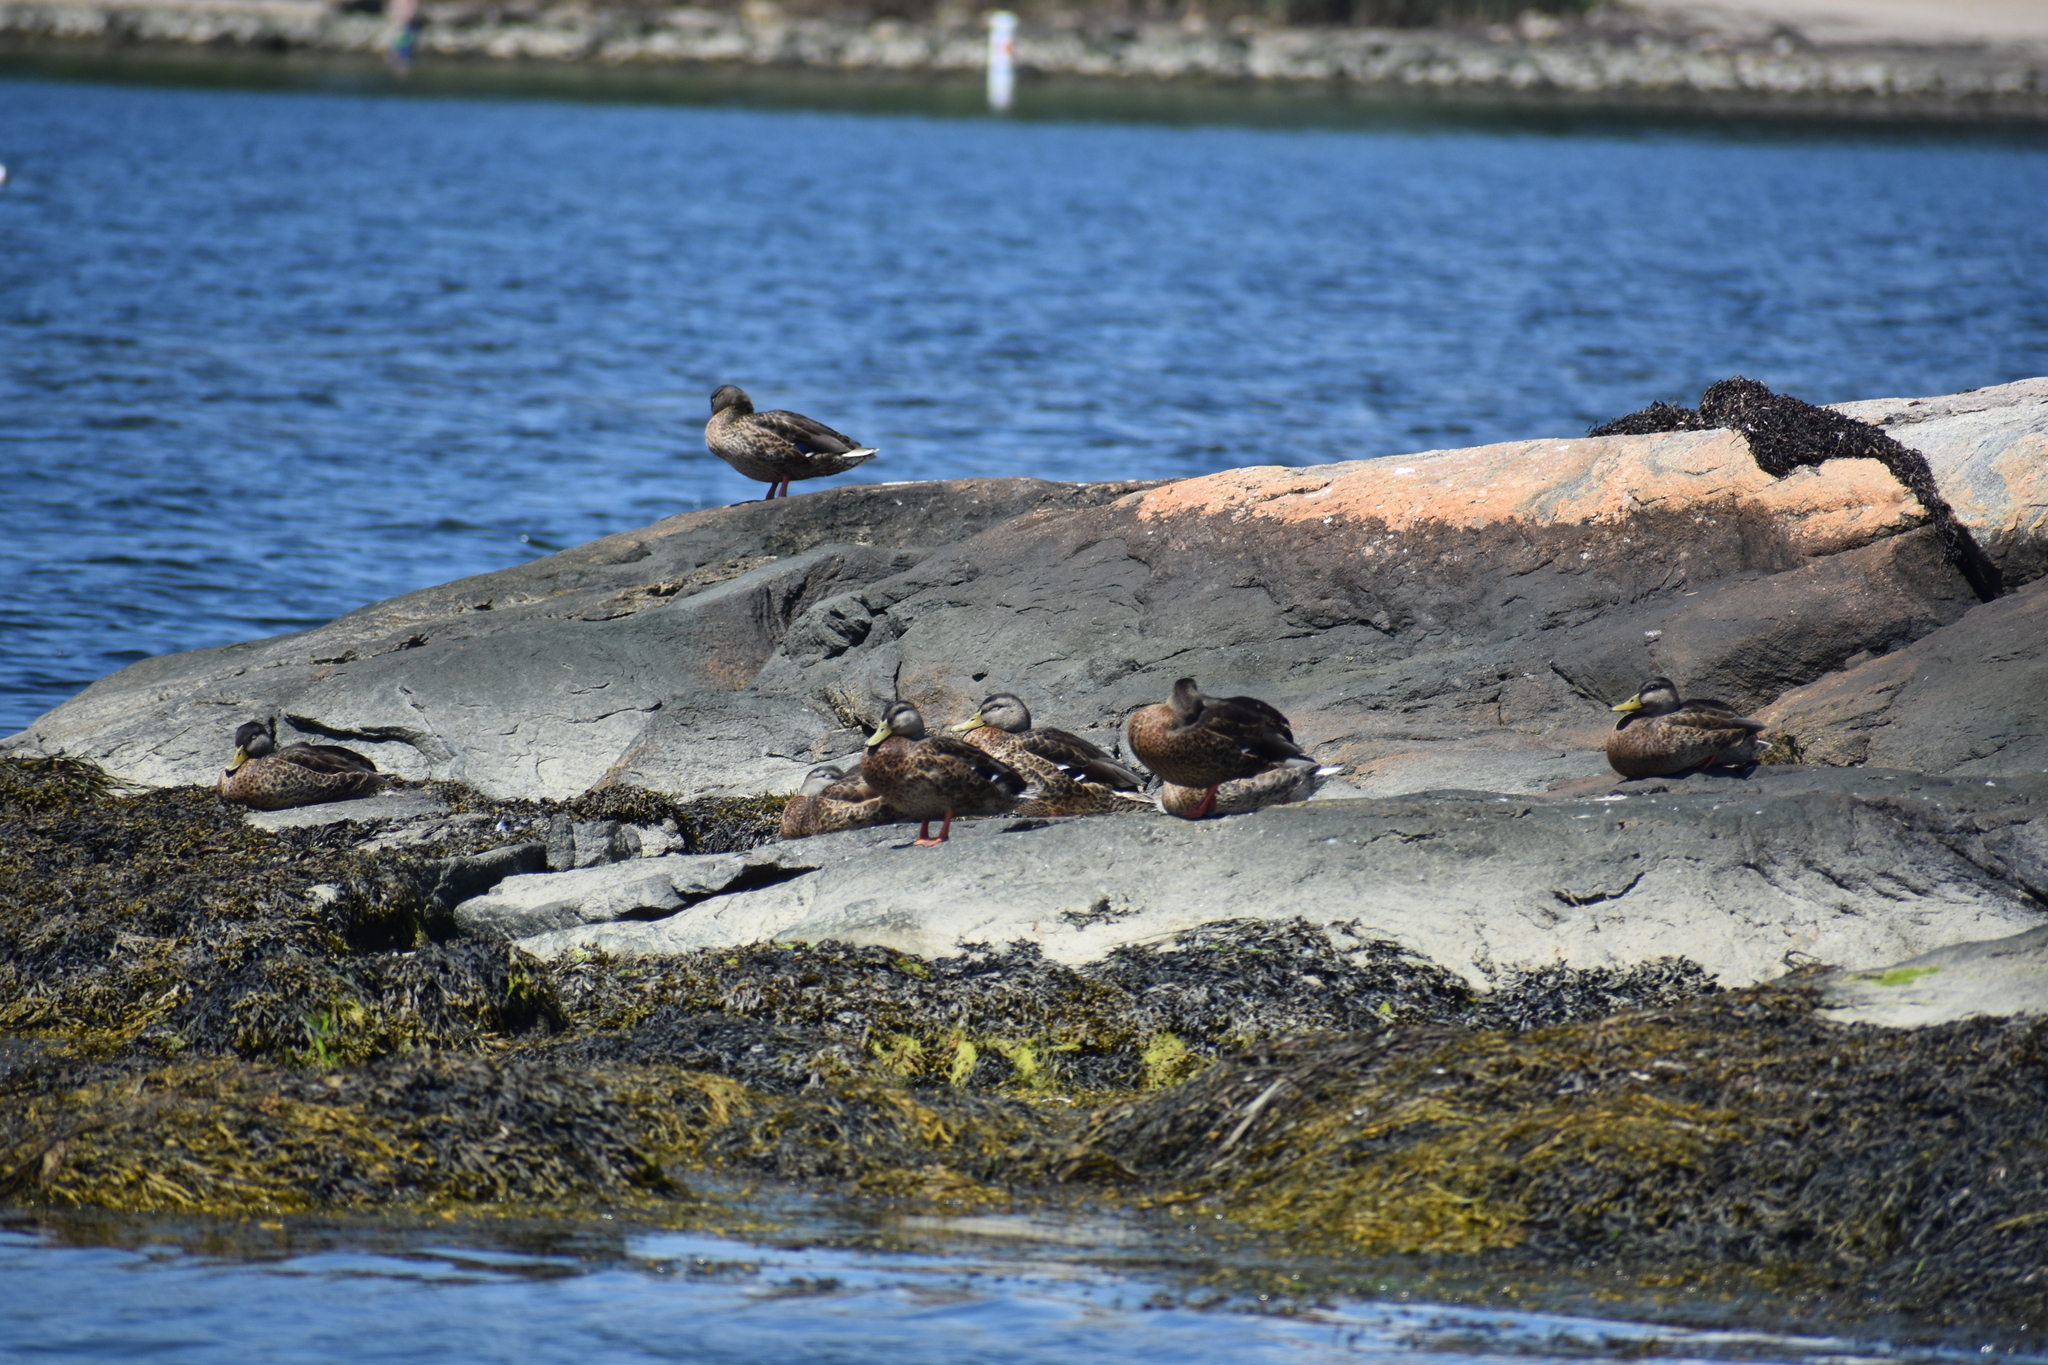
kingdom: Animalia
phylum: Chordata
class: Aves
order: Anseriformes
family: Anatidae
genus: Anas
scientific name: Anas platyrhynchos
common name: Mallard
